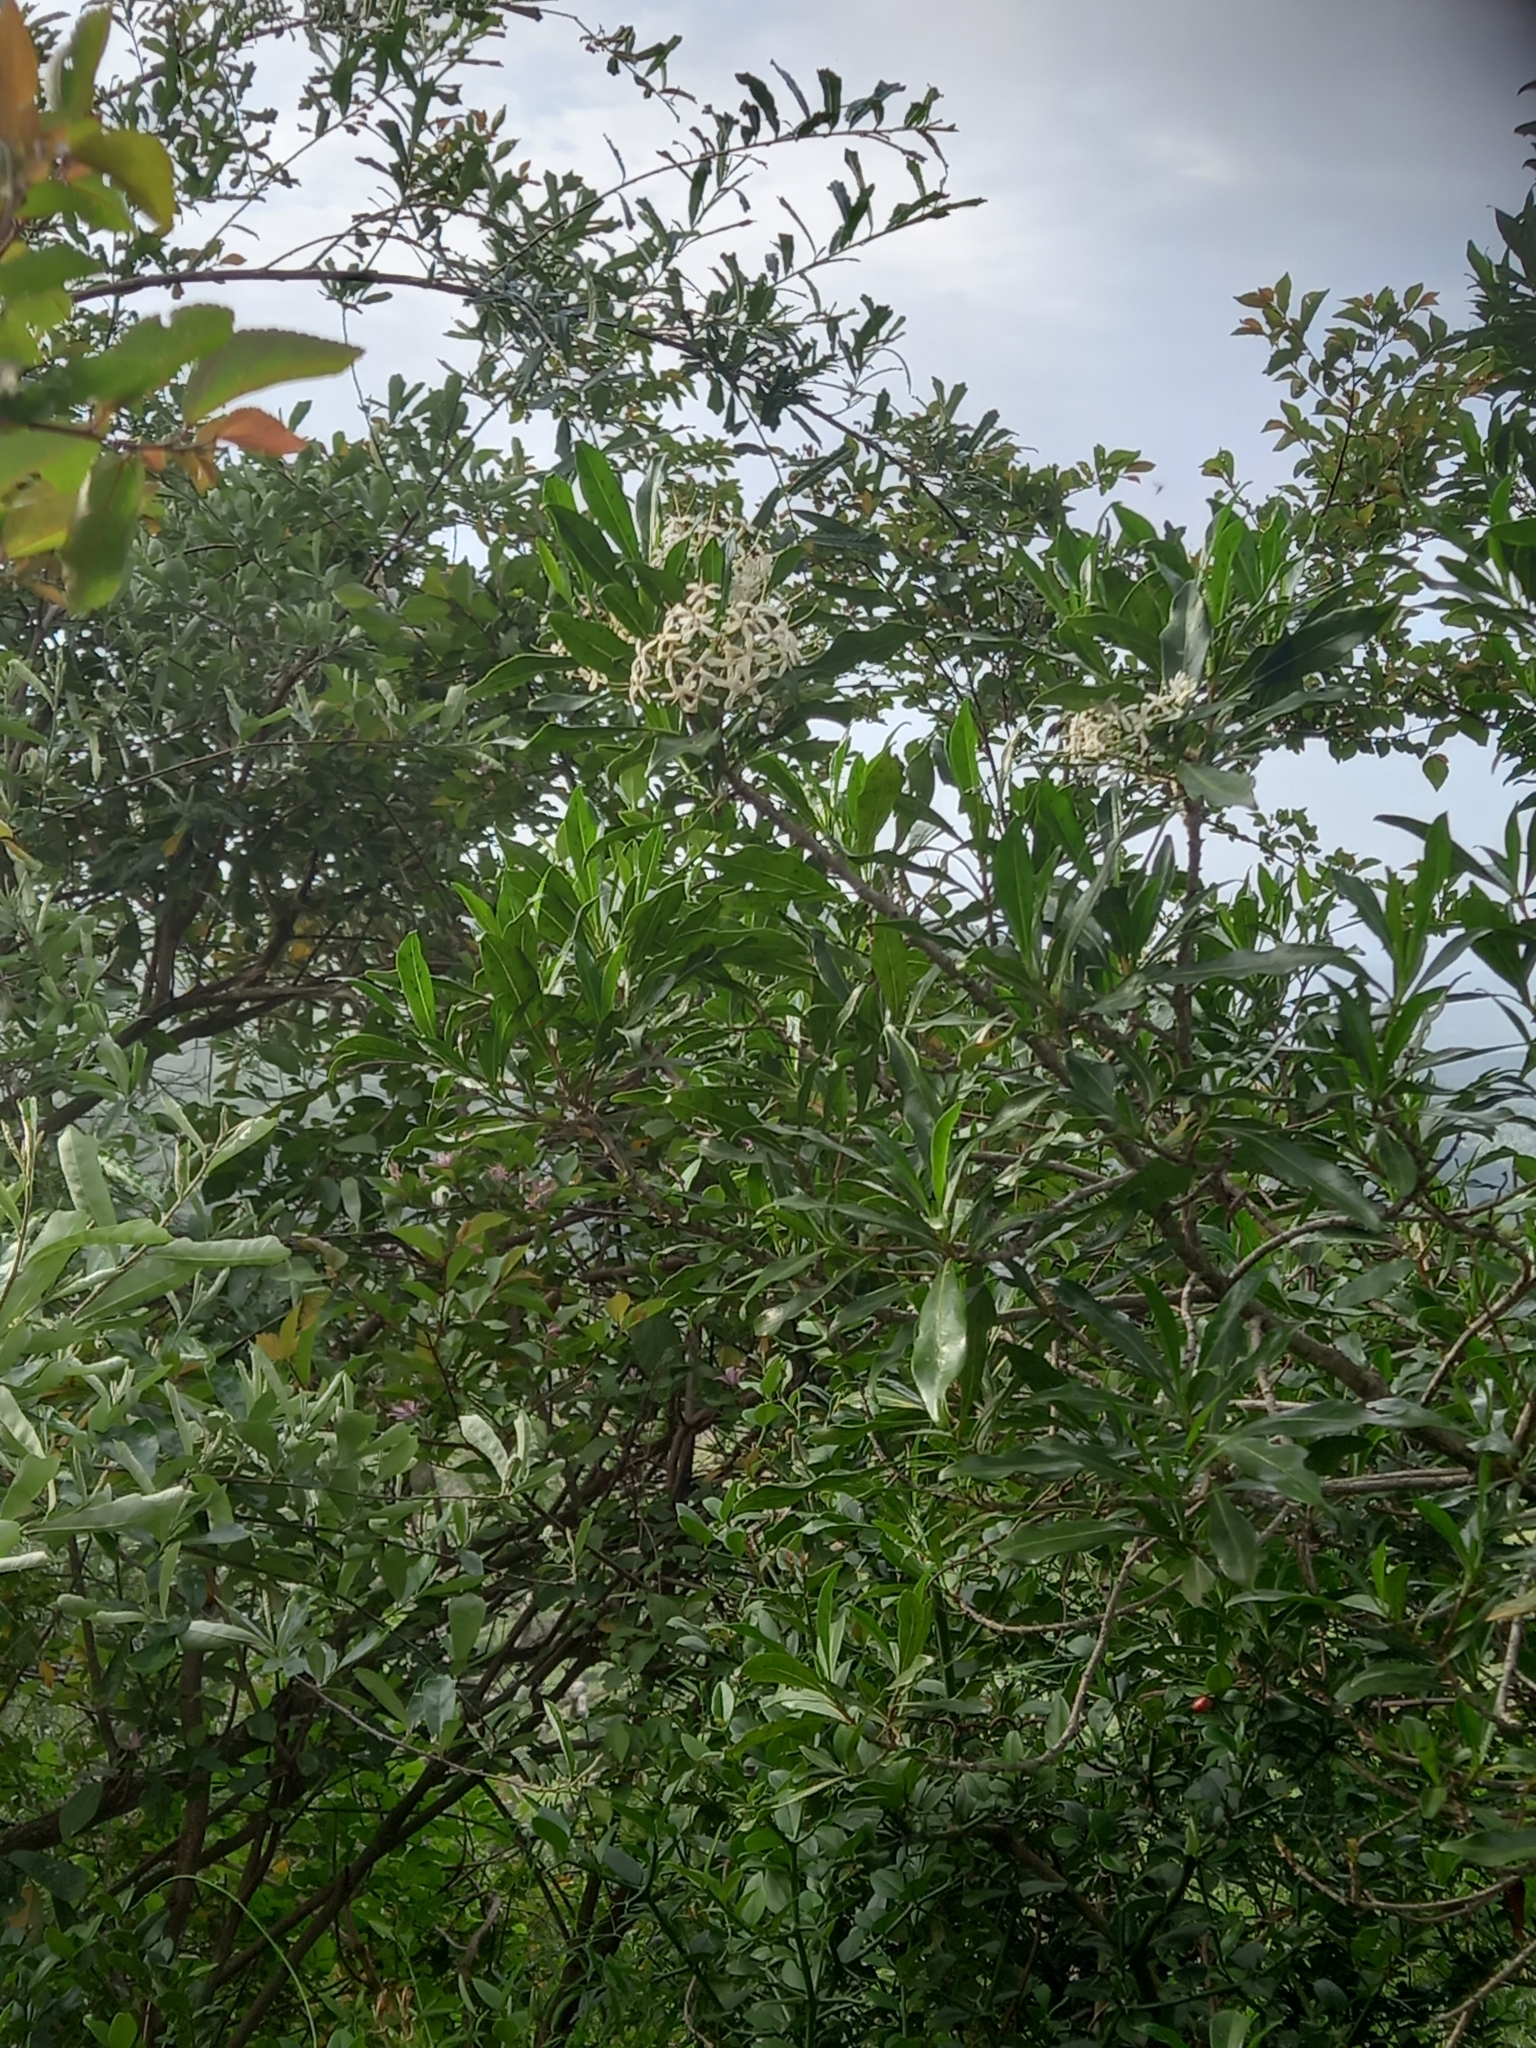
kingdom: Plantae
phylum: Tracheophyta
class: Magnoliopsida
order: Gentianales
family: Rubiaceae
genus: Pavetta
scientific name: Pavetta lanceolata
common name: Weeping brides-bush
